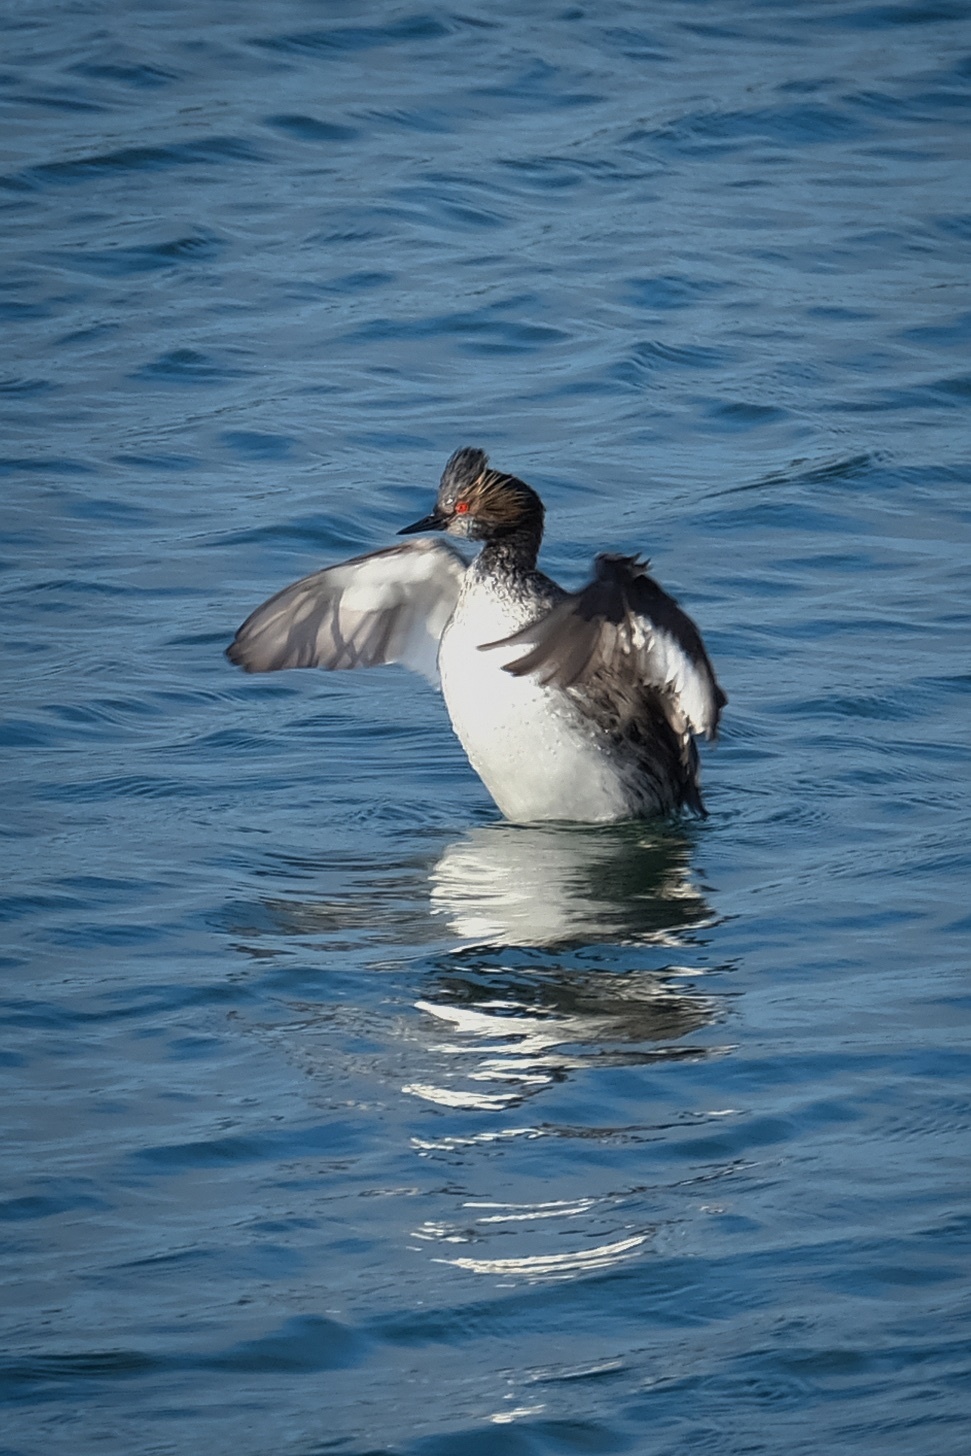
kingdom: Animalia
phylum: Chordata
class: Aves
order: Podicipediformes
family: Podicipedidae
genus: Podiceps
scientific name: Podiceps nigricollis
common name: Black-necked grebe
